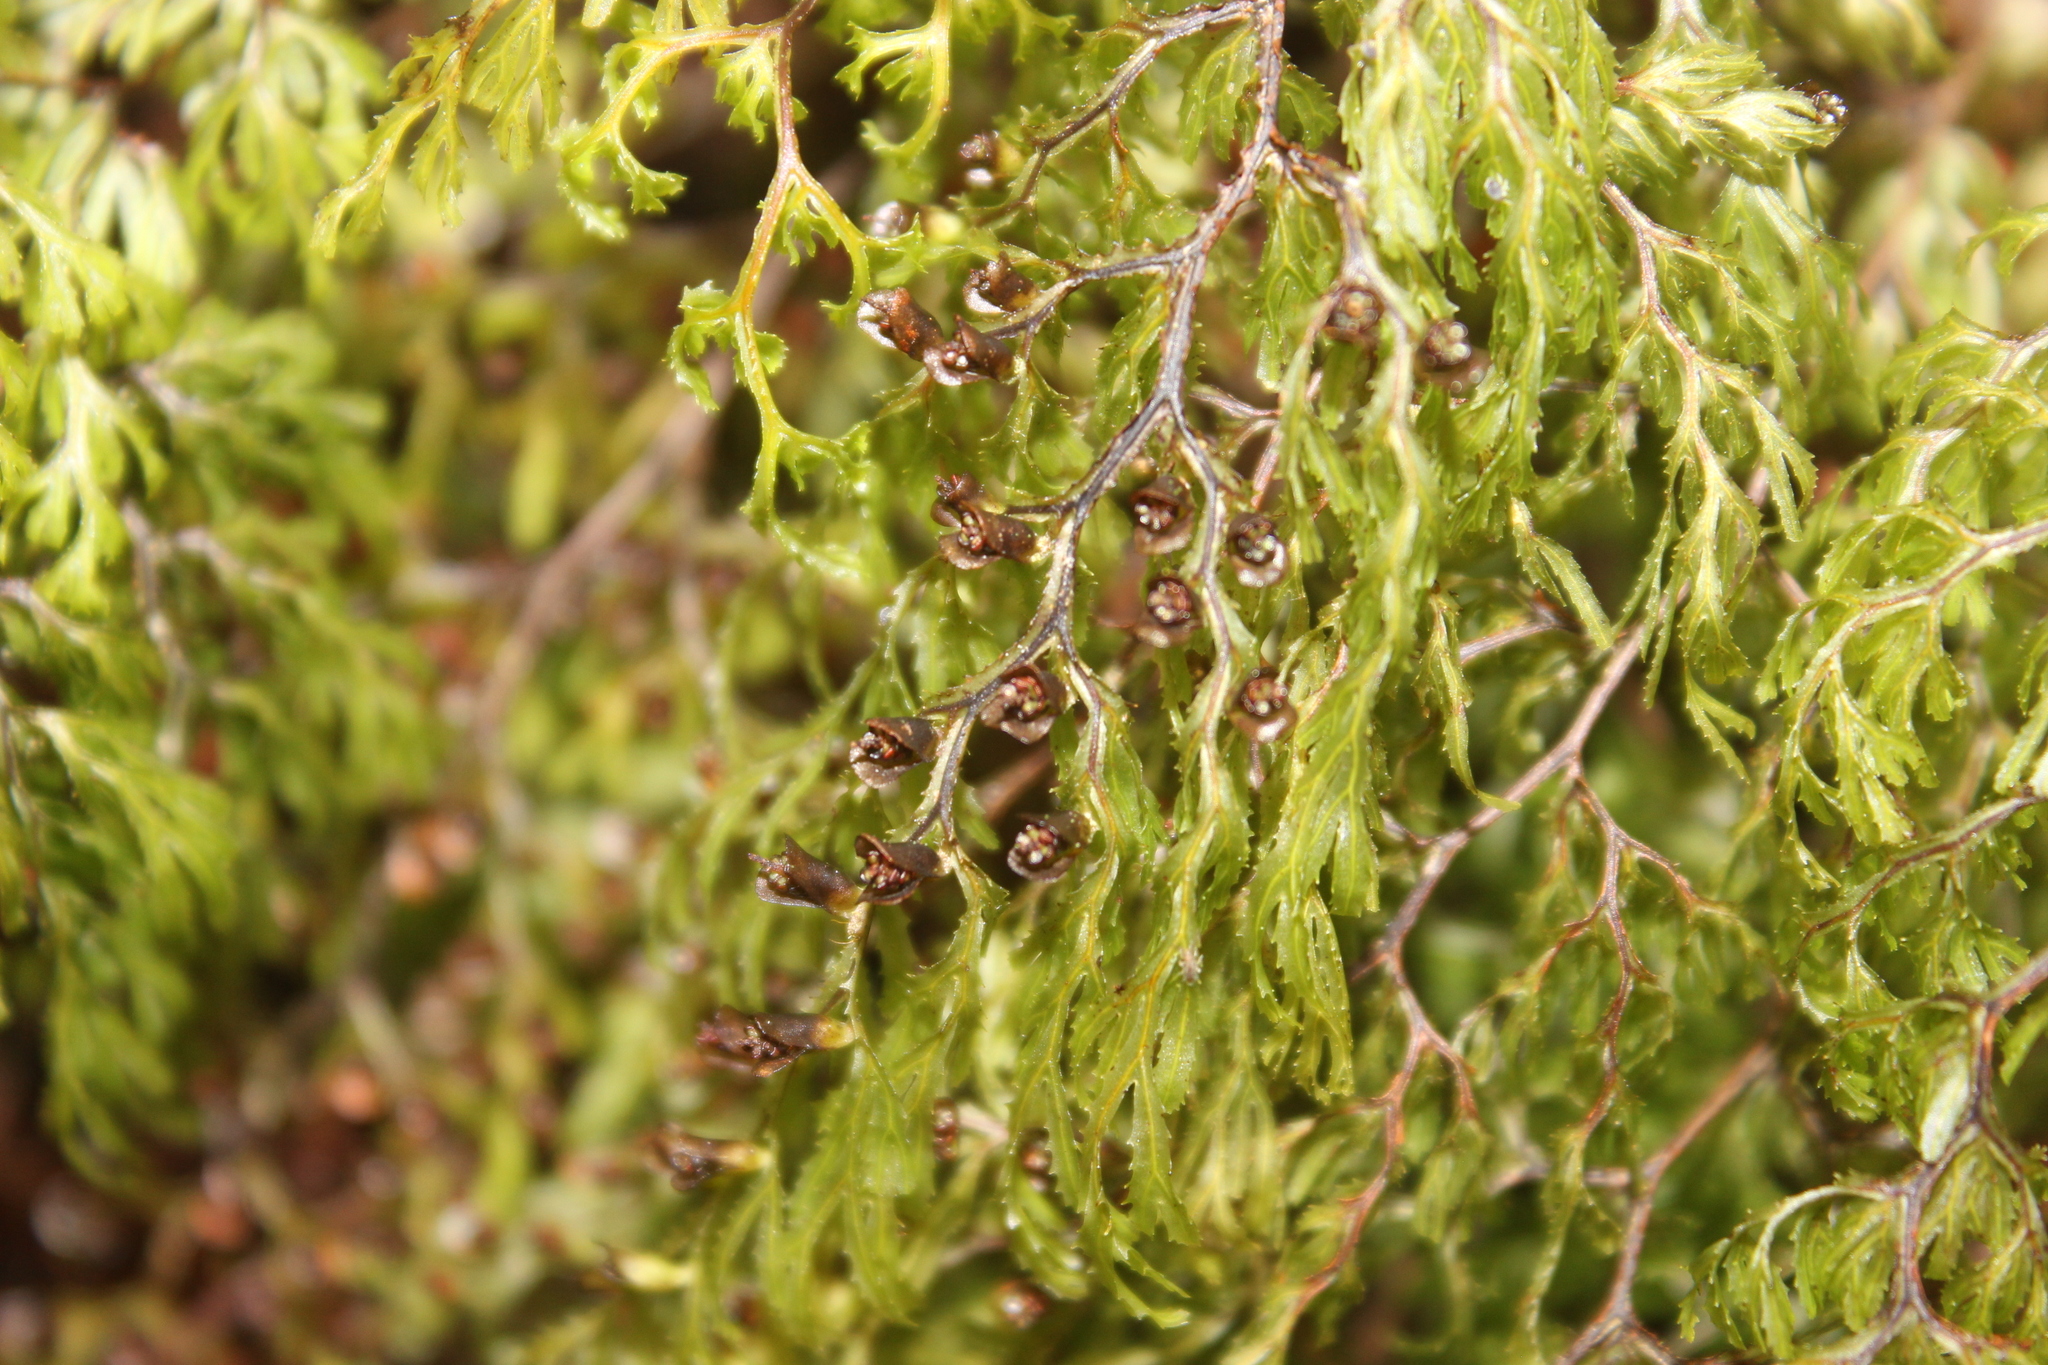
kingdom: Plantae
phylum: Tracheophyta
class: Polypodiopsida
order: Hymenophyllales
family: Hymenophyllaceae
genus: Hymenophyllum
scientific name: Hymenophyllum multifidum
